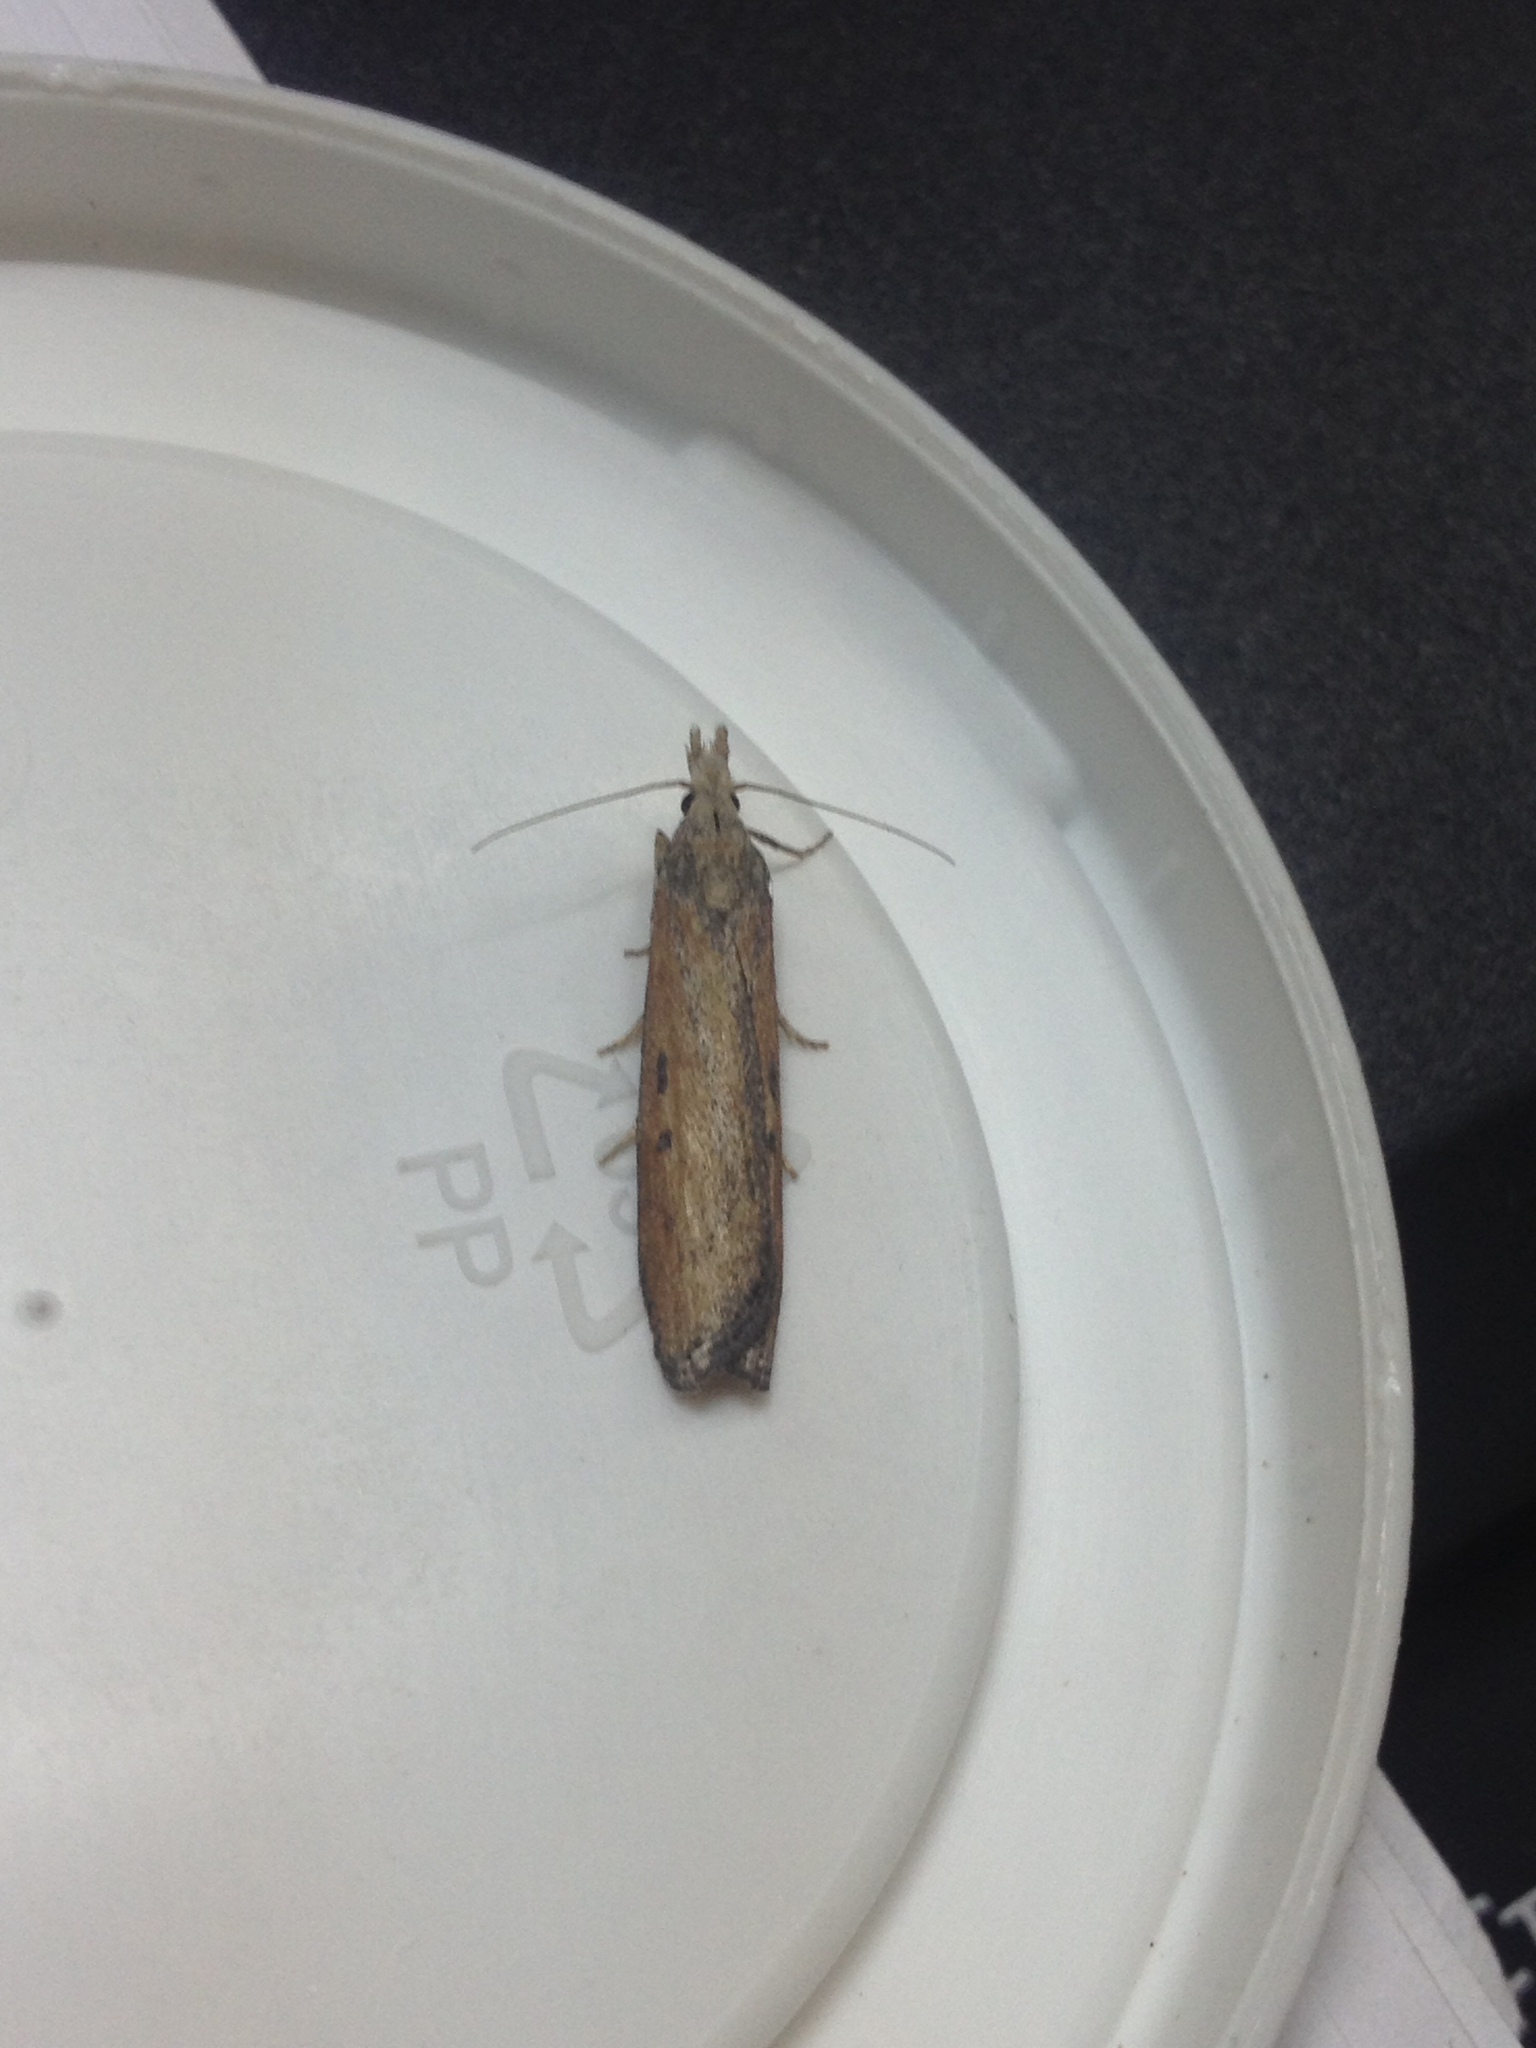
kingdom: Animalia
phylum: Arthropoda
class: Insecta
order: Lepidoptera
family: Pyralidae
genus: Aphomia
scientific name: Aphomia zelleri
